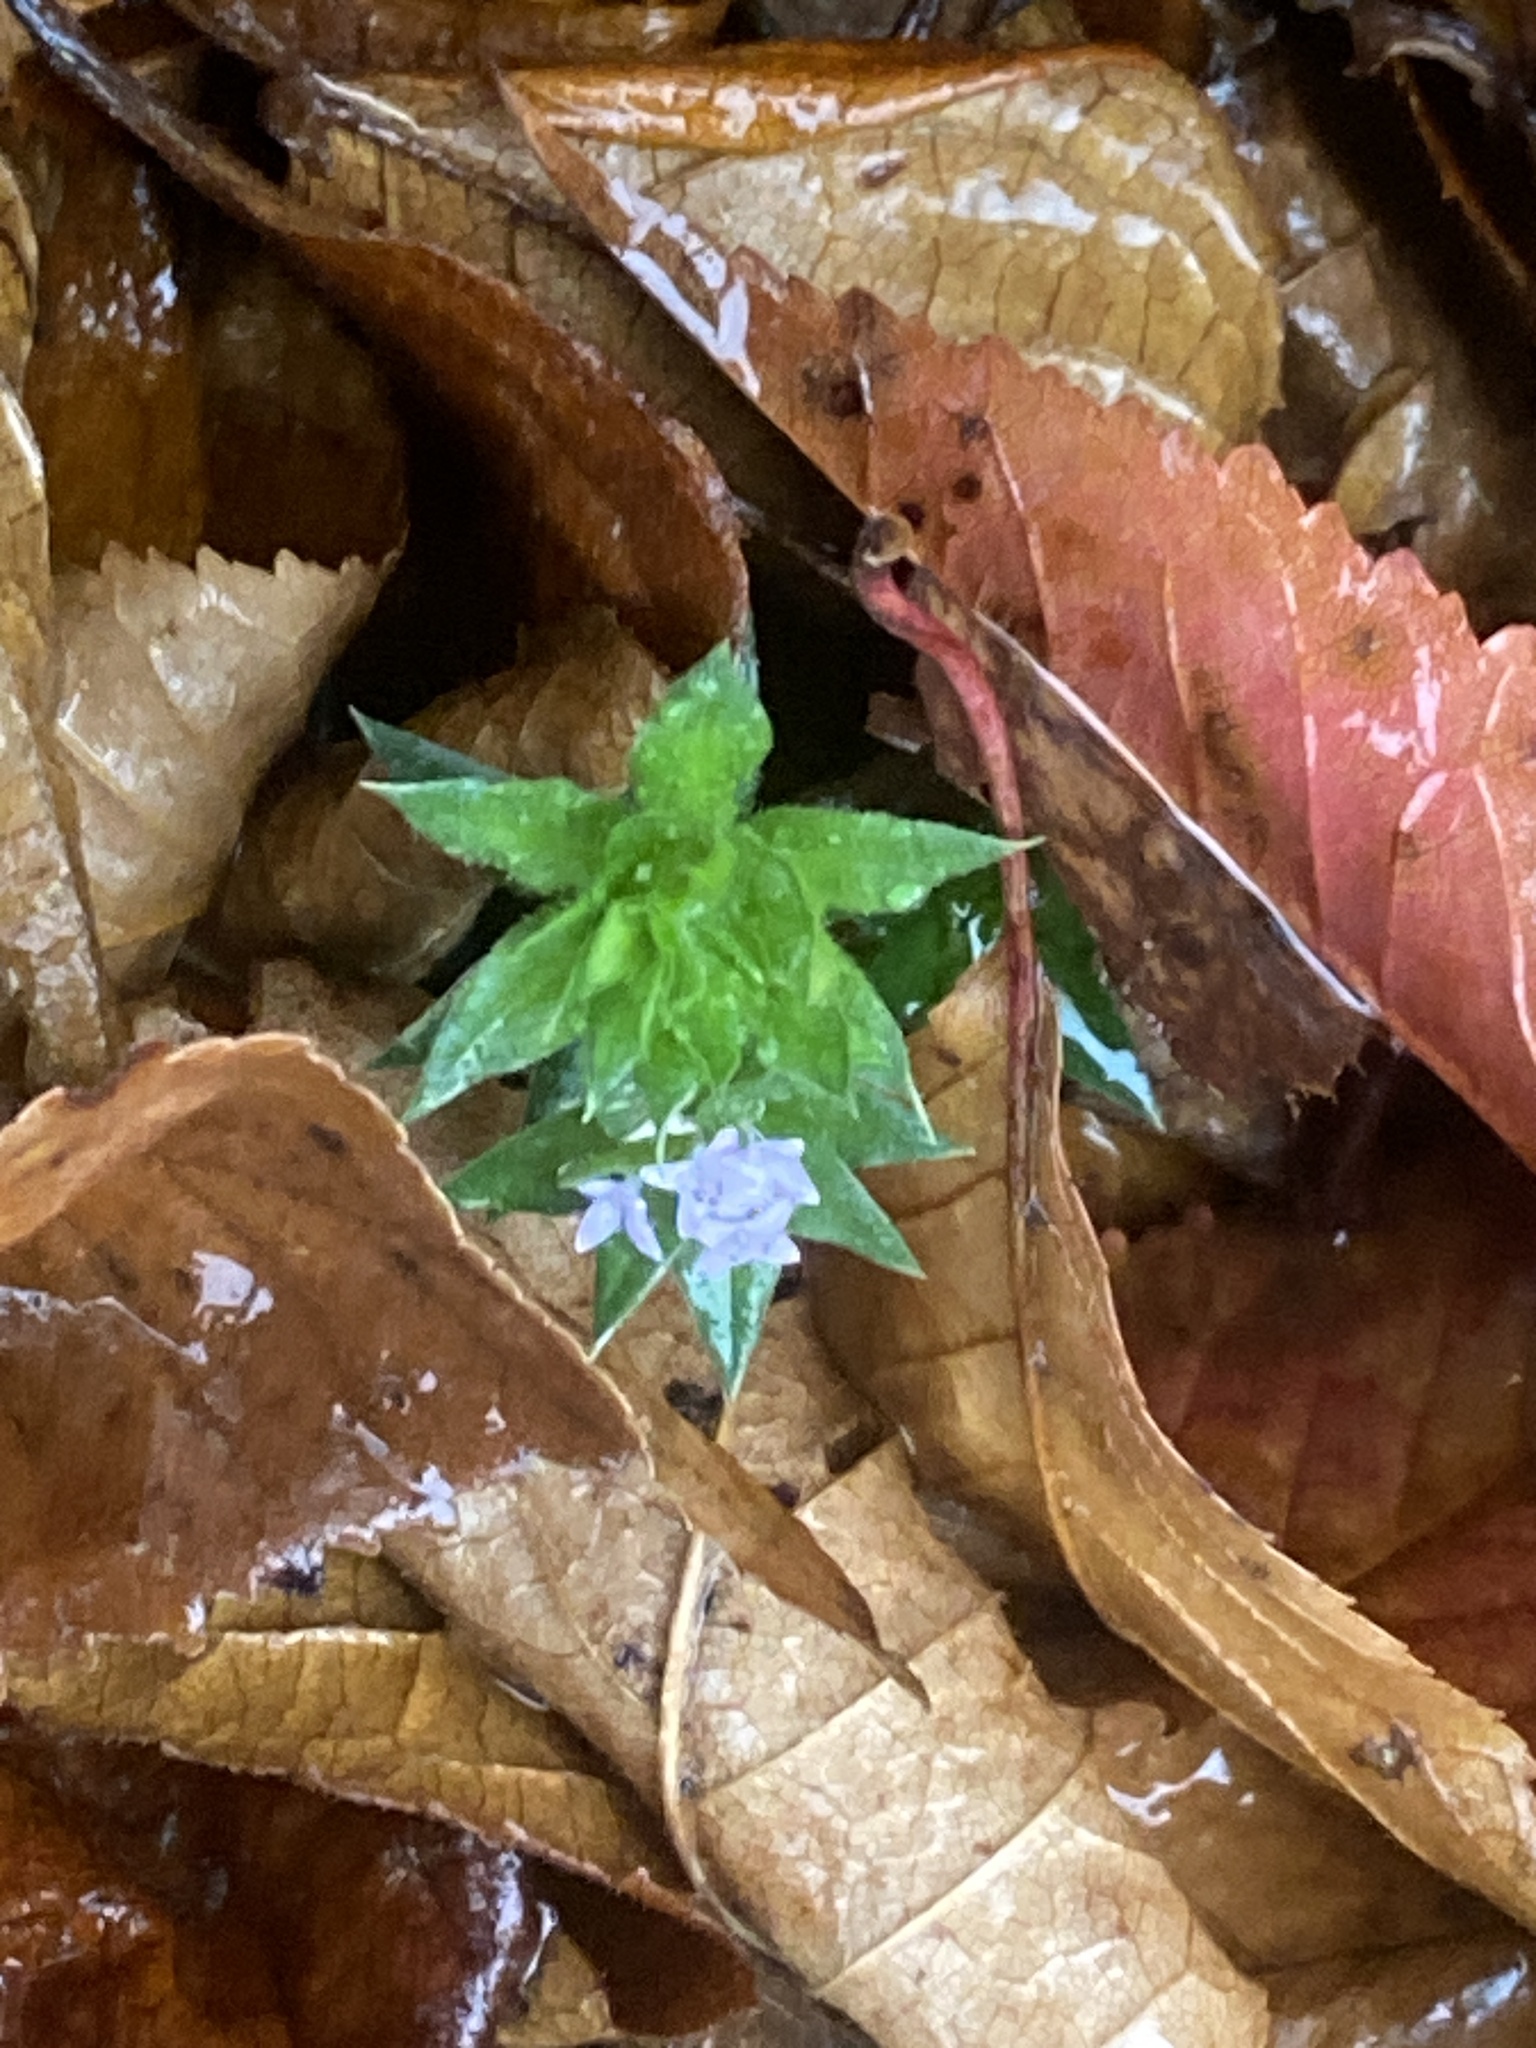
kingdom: Plantae
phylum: Tracheophyta
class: Magnoliopsida
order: Gentianales
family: Rubiaceae
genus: Sherardia
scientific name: Sherardia arvensis
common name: Field madder
